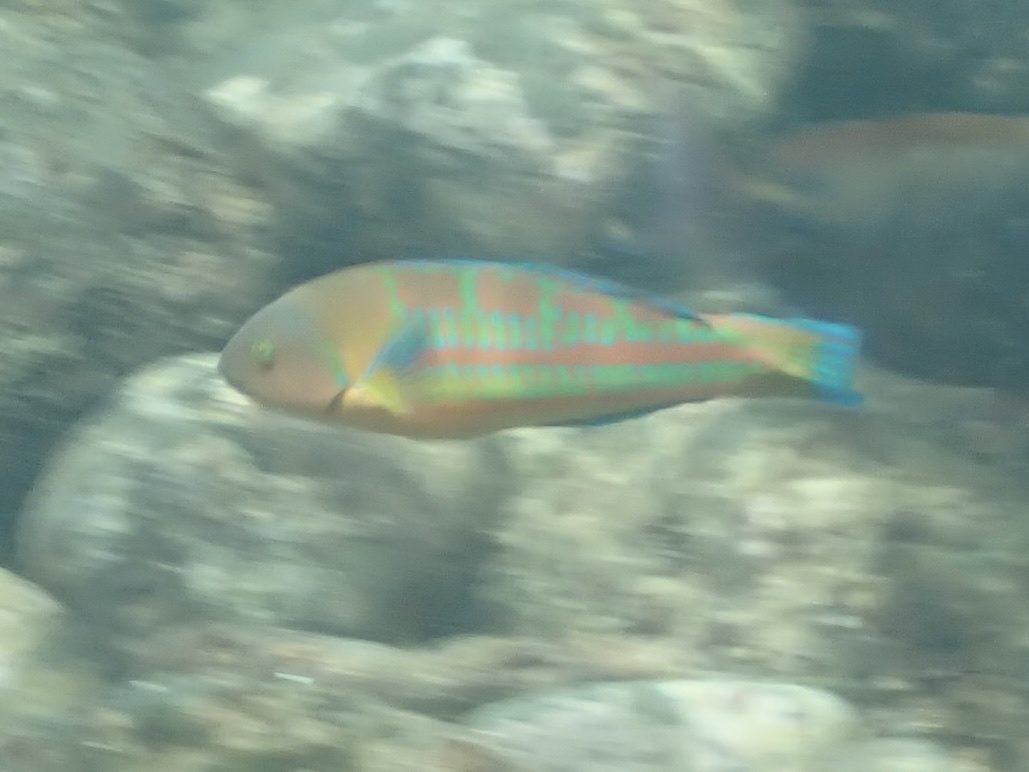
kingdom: Animalia
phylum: Chordata
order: Perciformes
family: Labridae
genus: Thalassoma
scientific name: Thalassoma trilobatum
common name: Christmas wrasse
